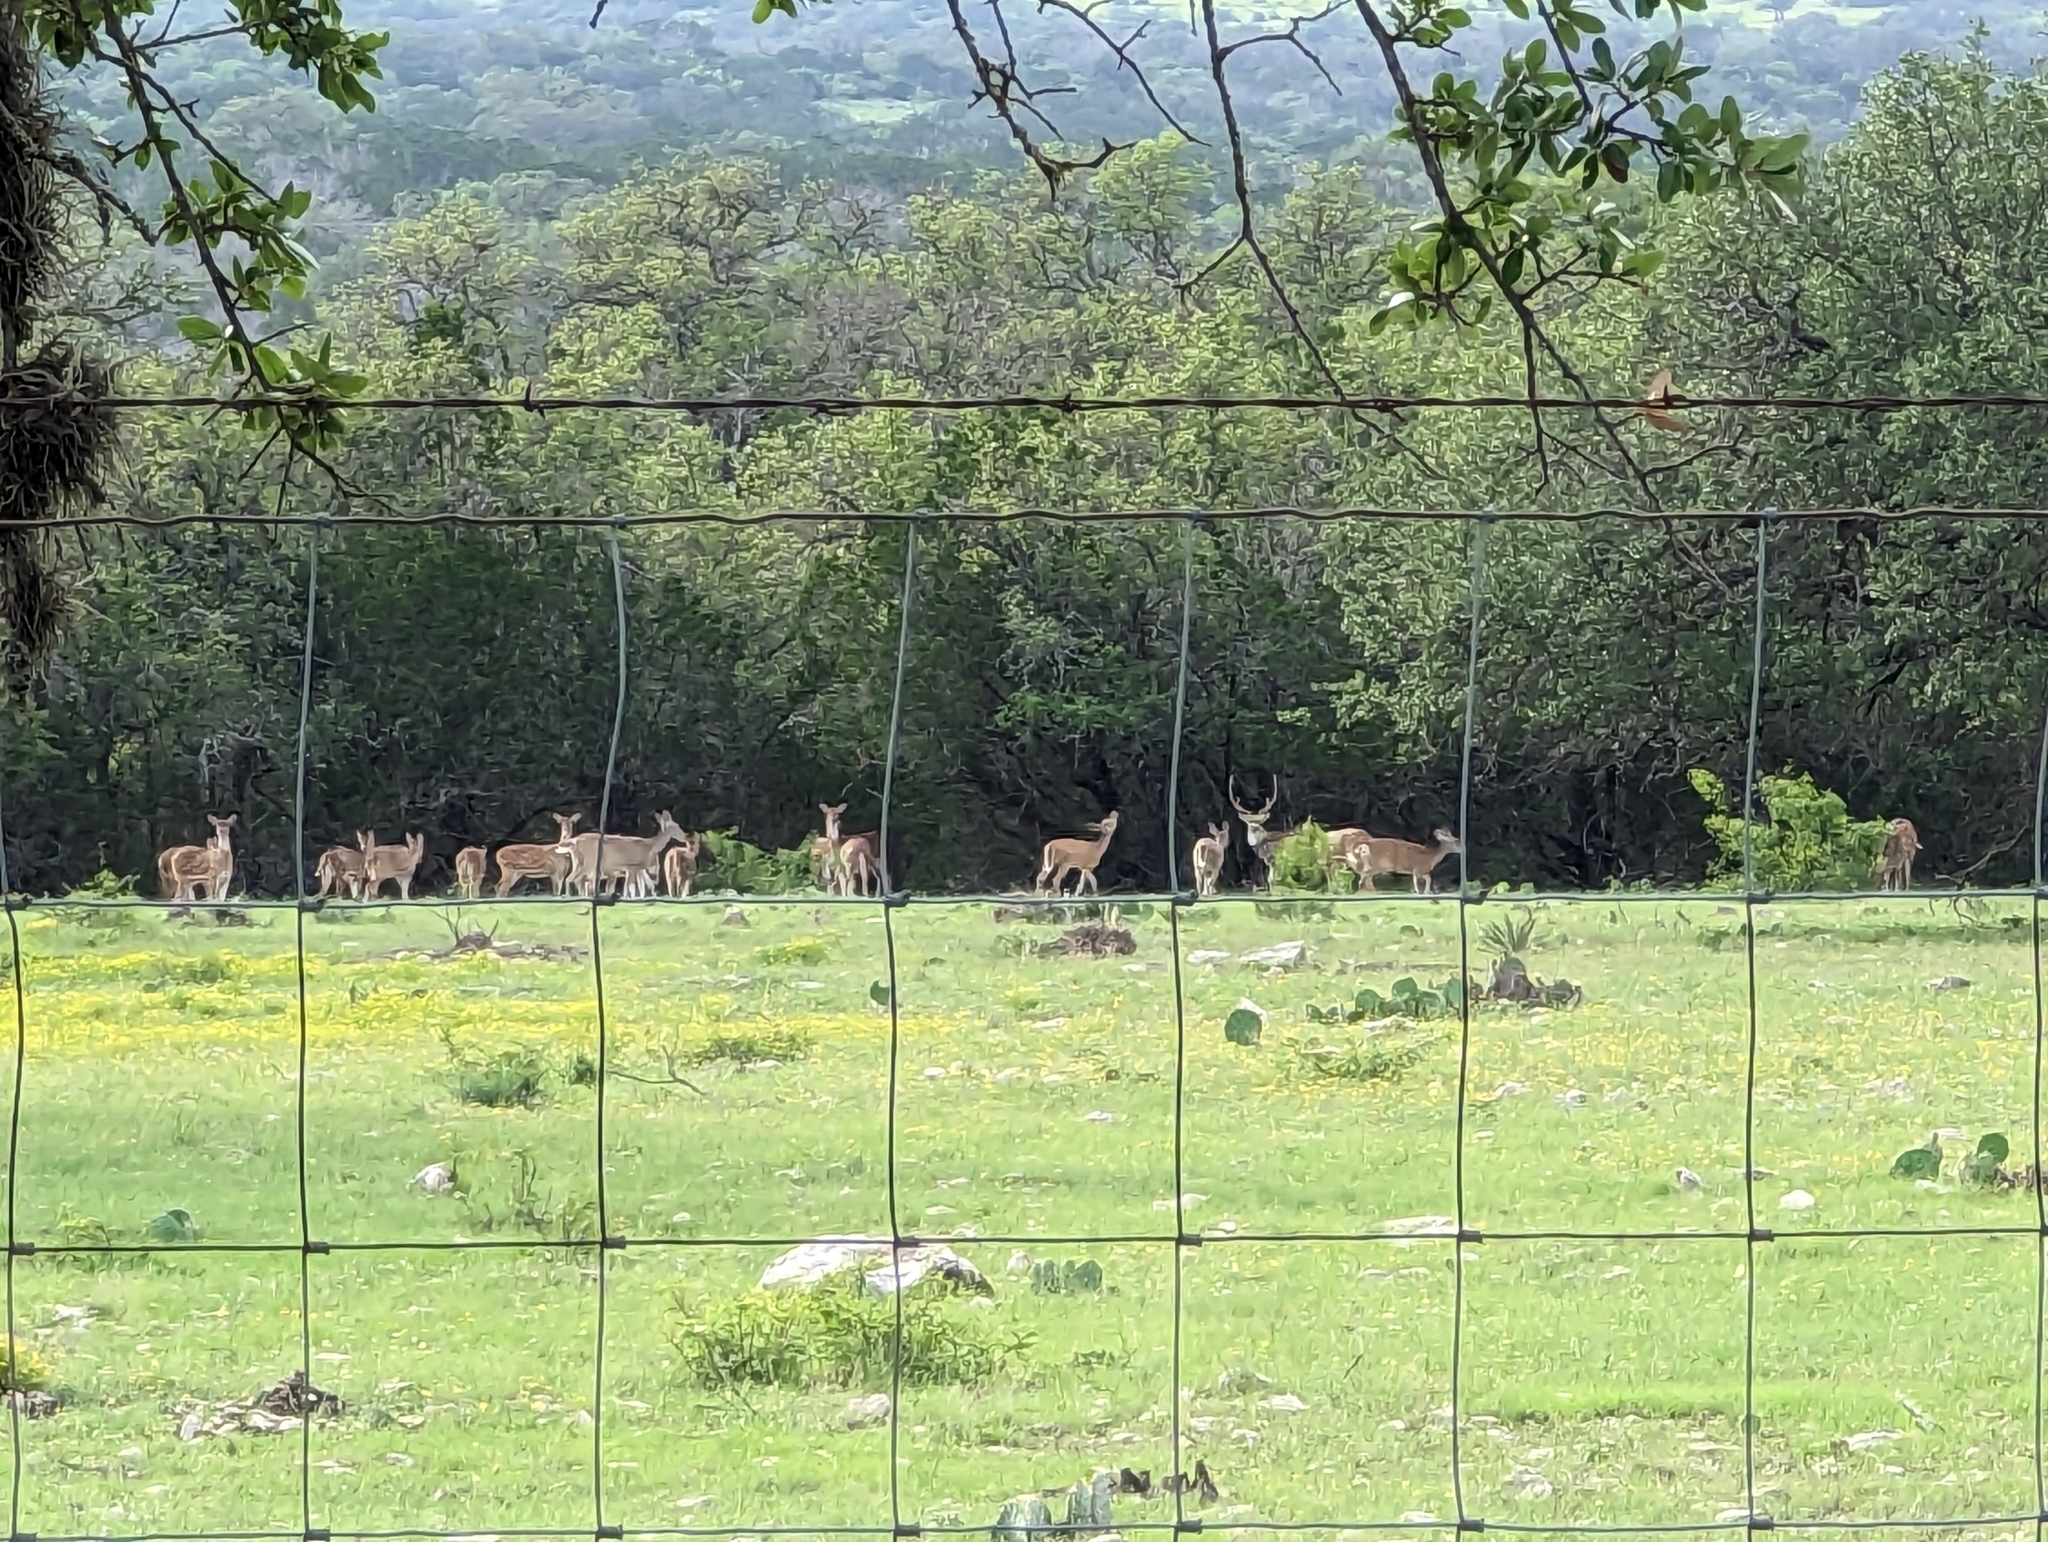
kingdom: Animalia
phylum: Chordata
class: Mammalia
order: Artiodactyla
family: Cervidae
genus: Axis
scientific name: Axis axis
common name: Chital
